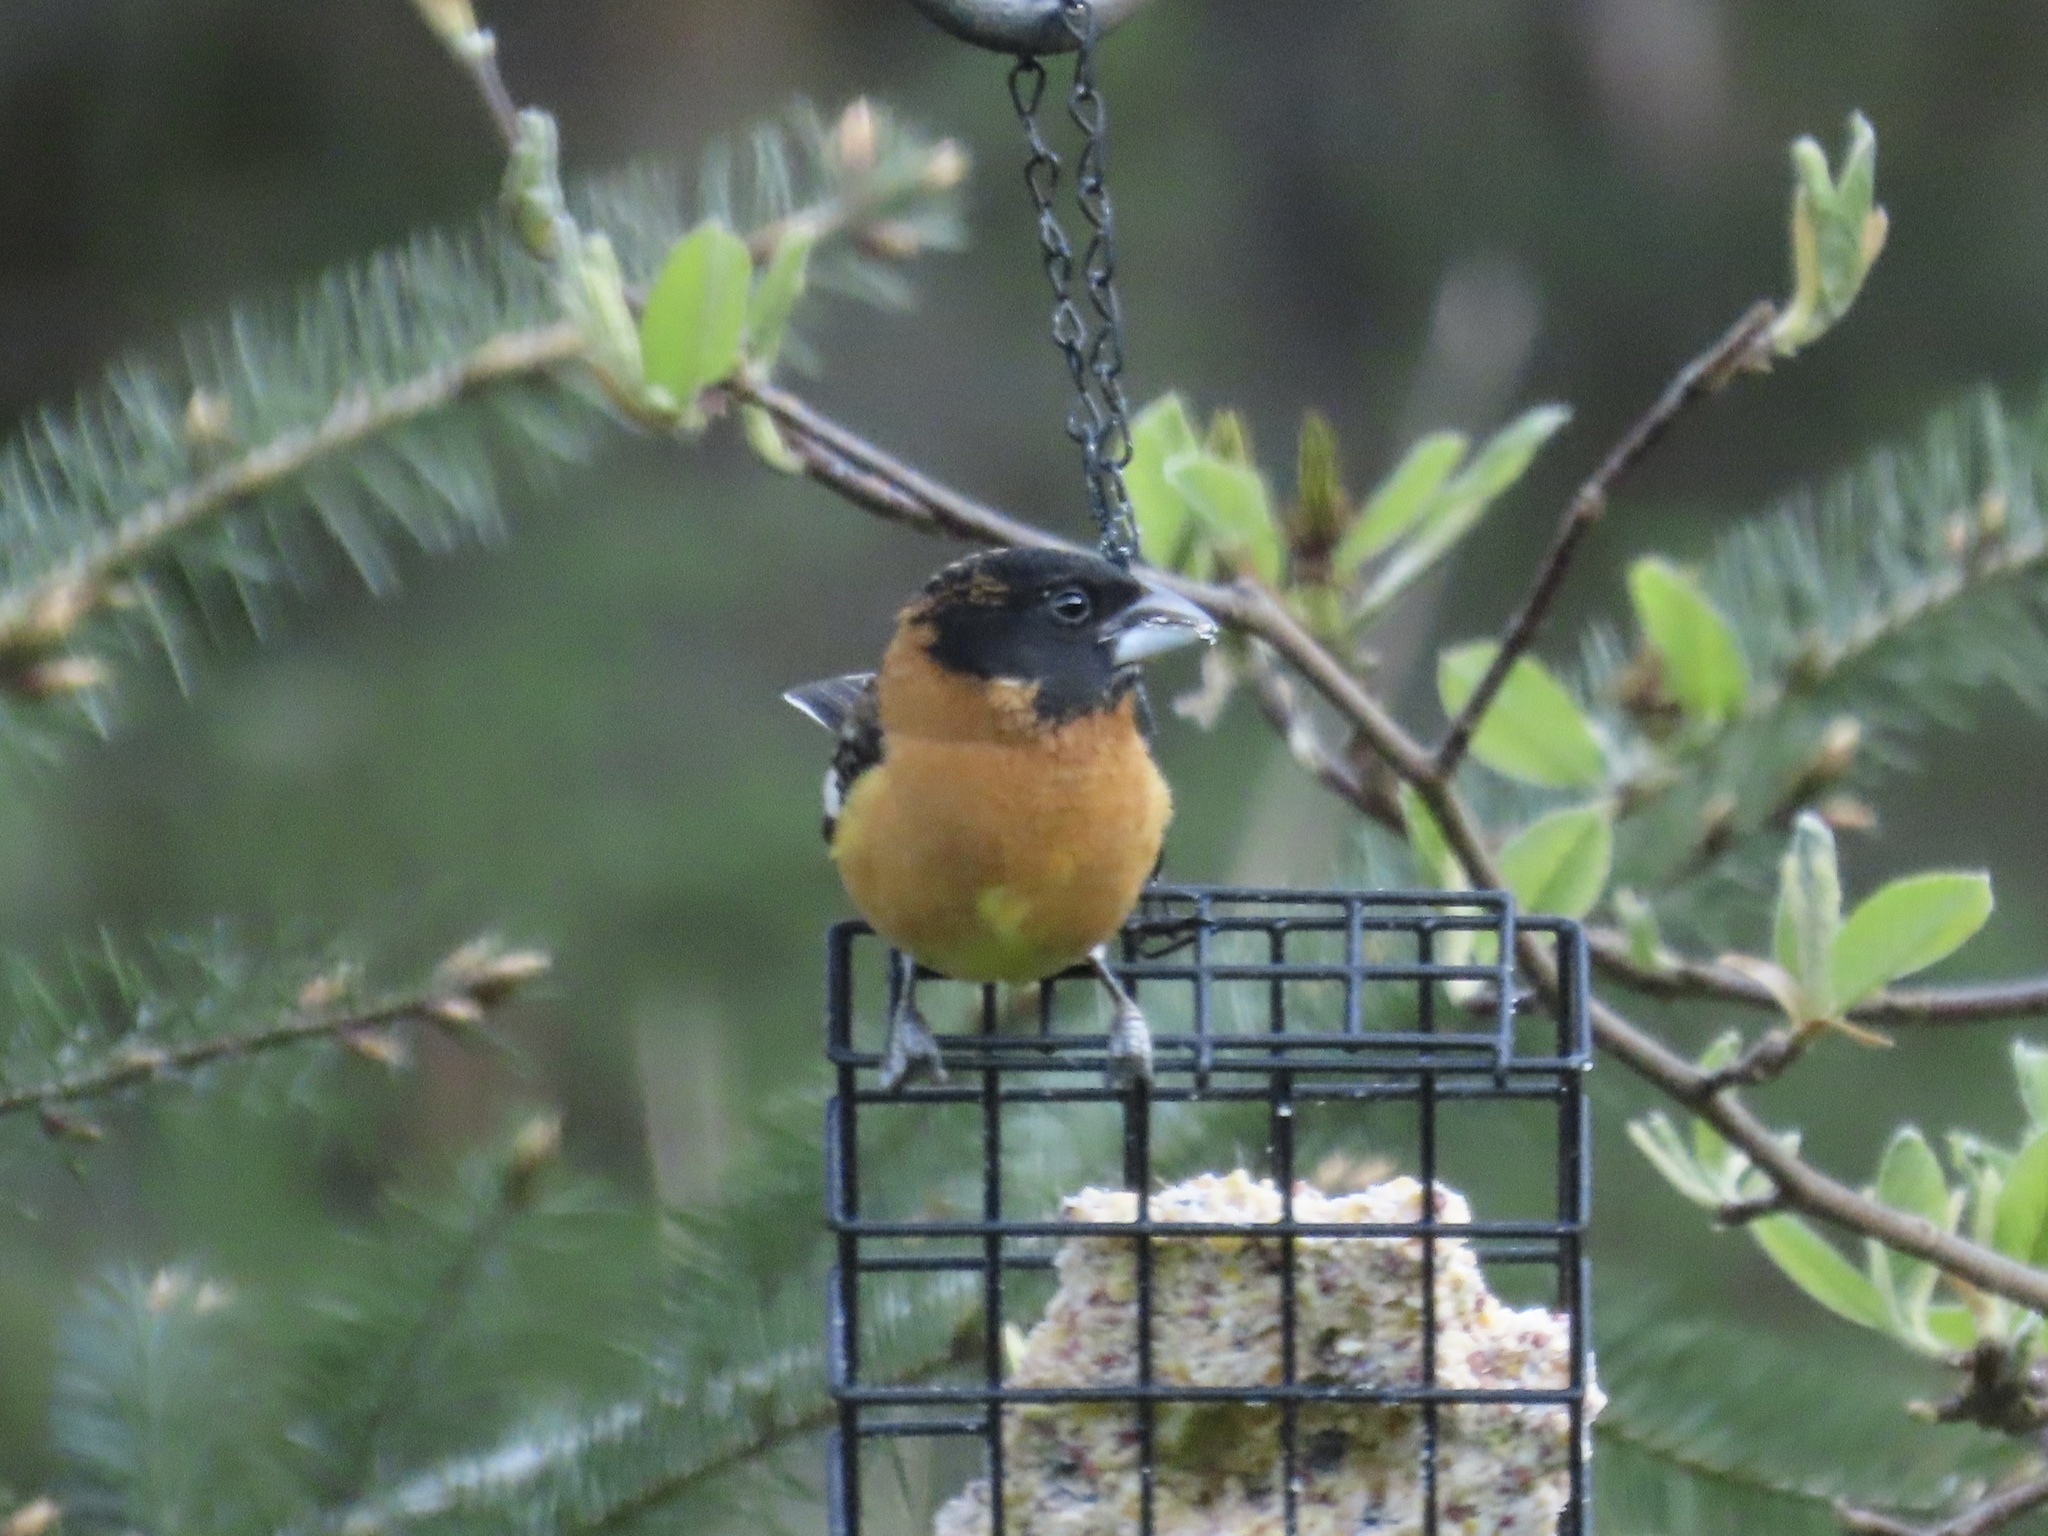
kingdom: Animalia
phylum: Chordata
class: Aves
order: Passeriformes
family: Cardinalidae
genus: Pheucticus
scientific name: Pheucticus melanocephalus
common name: Black-headed grosbeak
